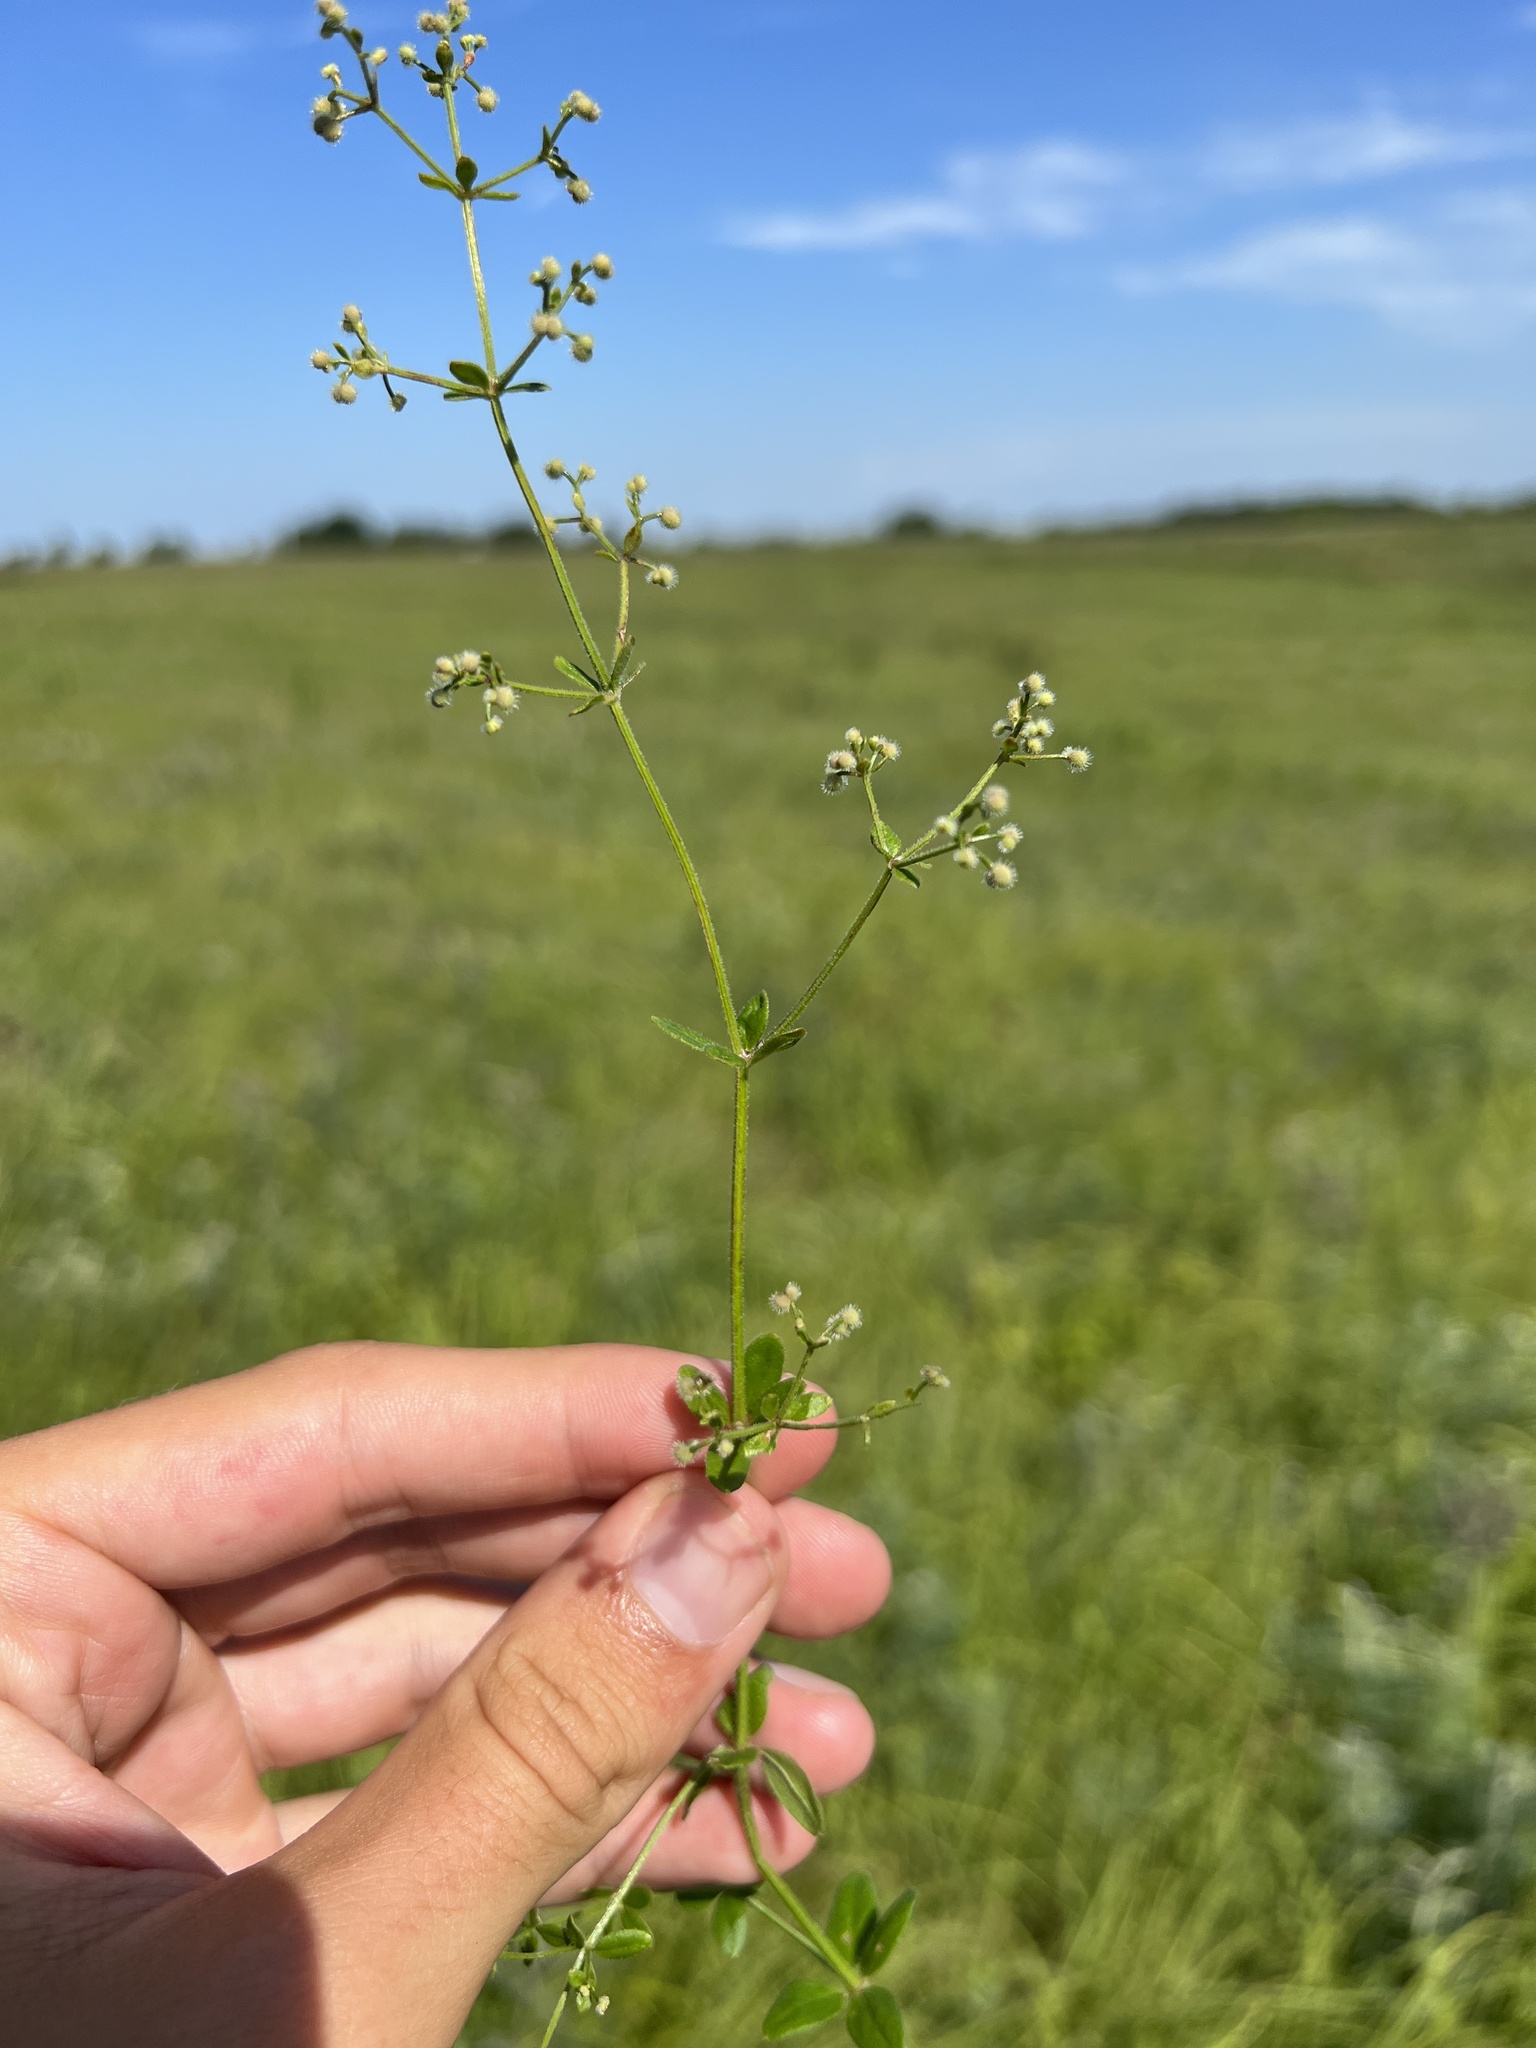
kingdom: Plantae
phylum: Tracheophyta
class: Magnoliopsida
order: Gentianales
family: Rubiaceae
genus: Galium
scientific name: Galium pilosum
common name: Hairy bedstraw
